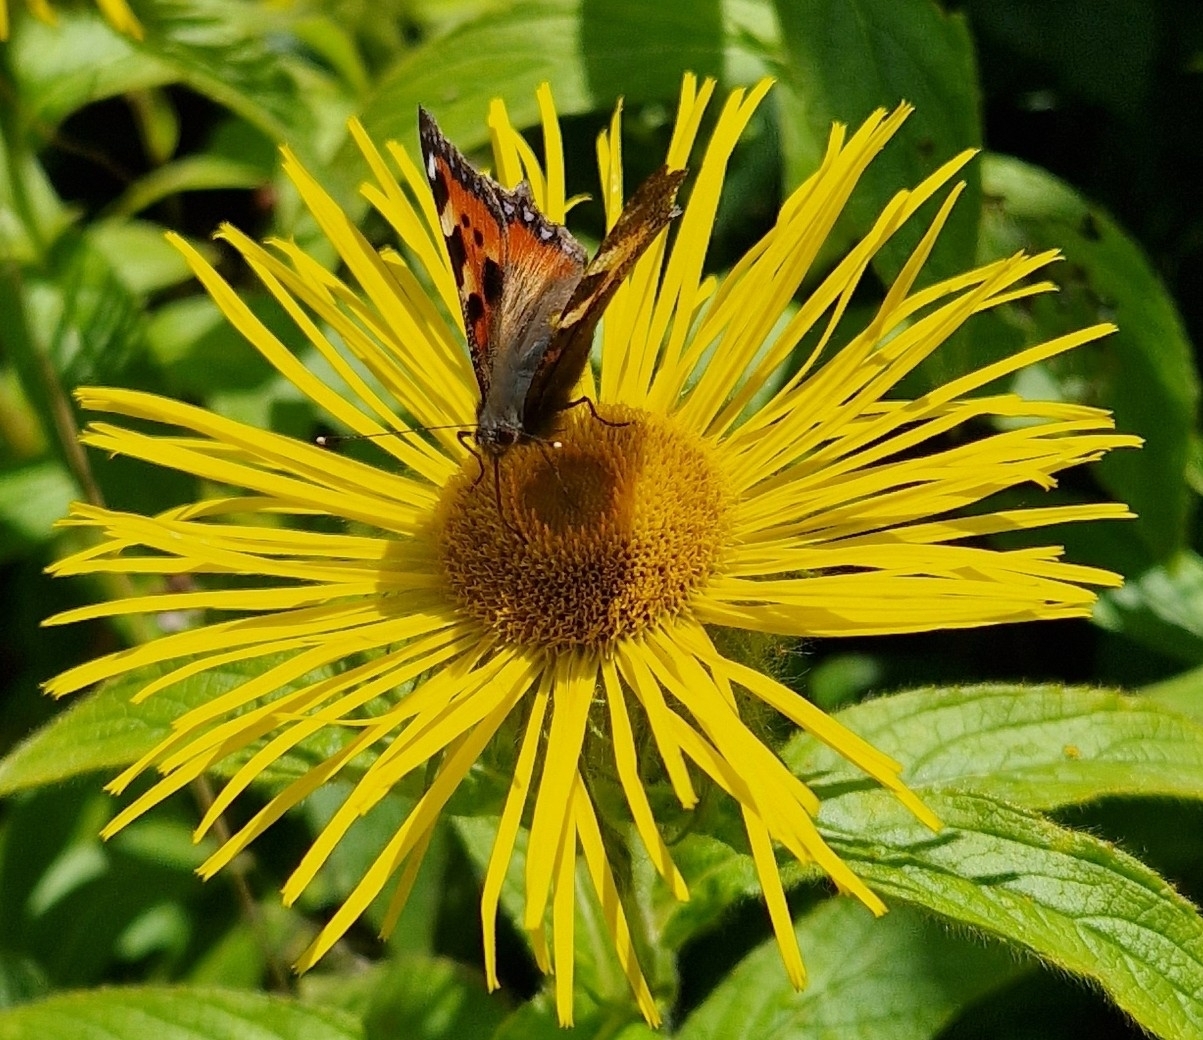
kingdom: Animalia
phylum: Arthropoda
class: Insecta
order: Lepidoptera
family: Nymphalidae
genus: Aglais
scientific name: Aglais urticae
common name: Small tortoiseshell
